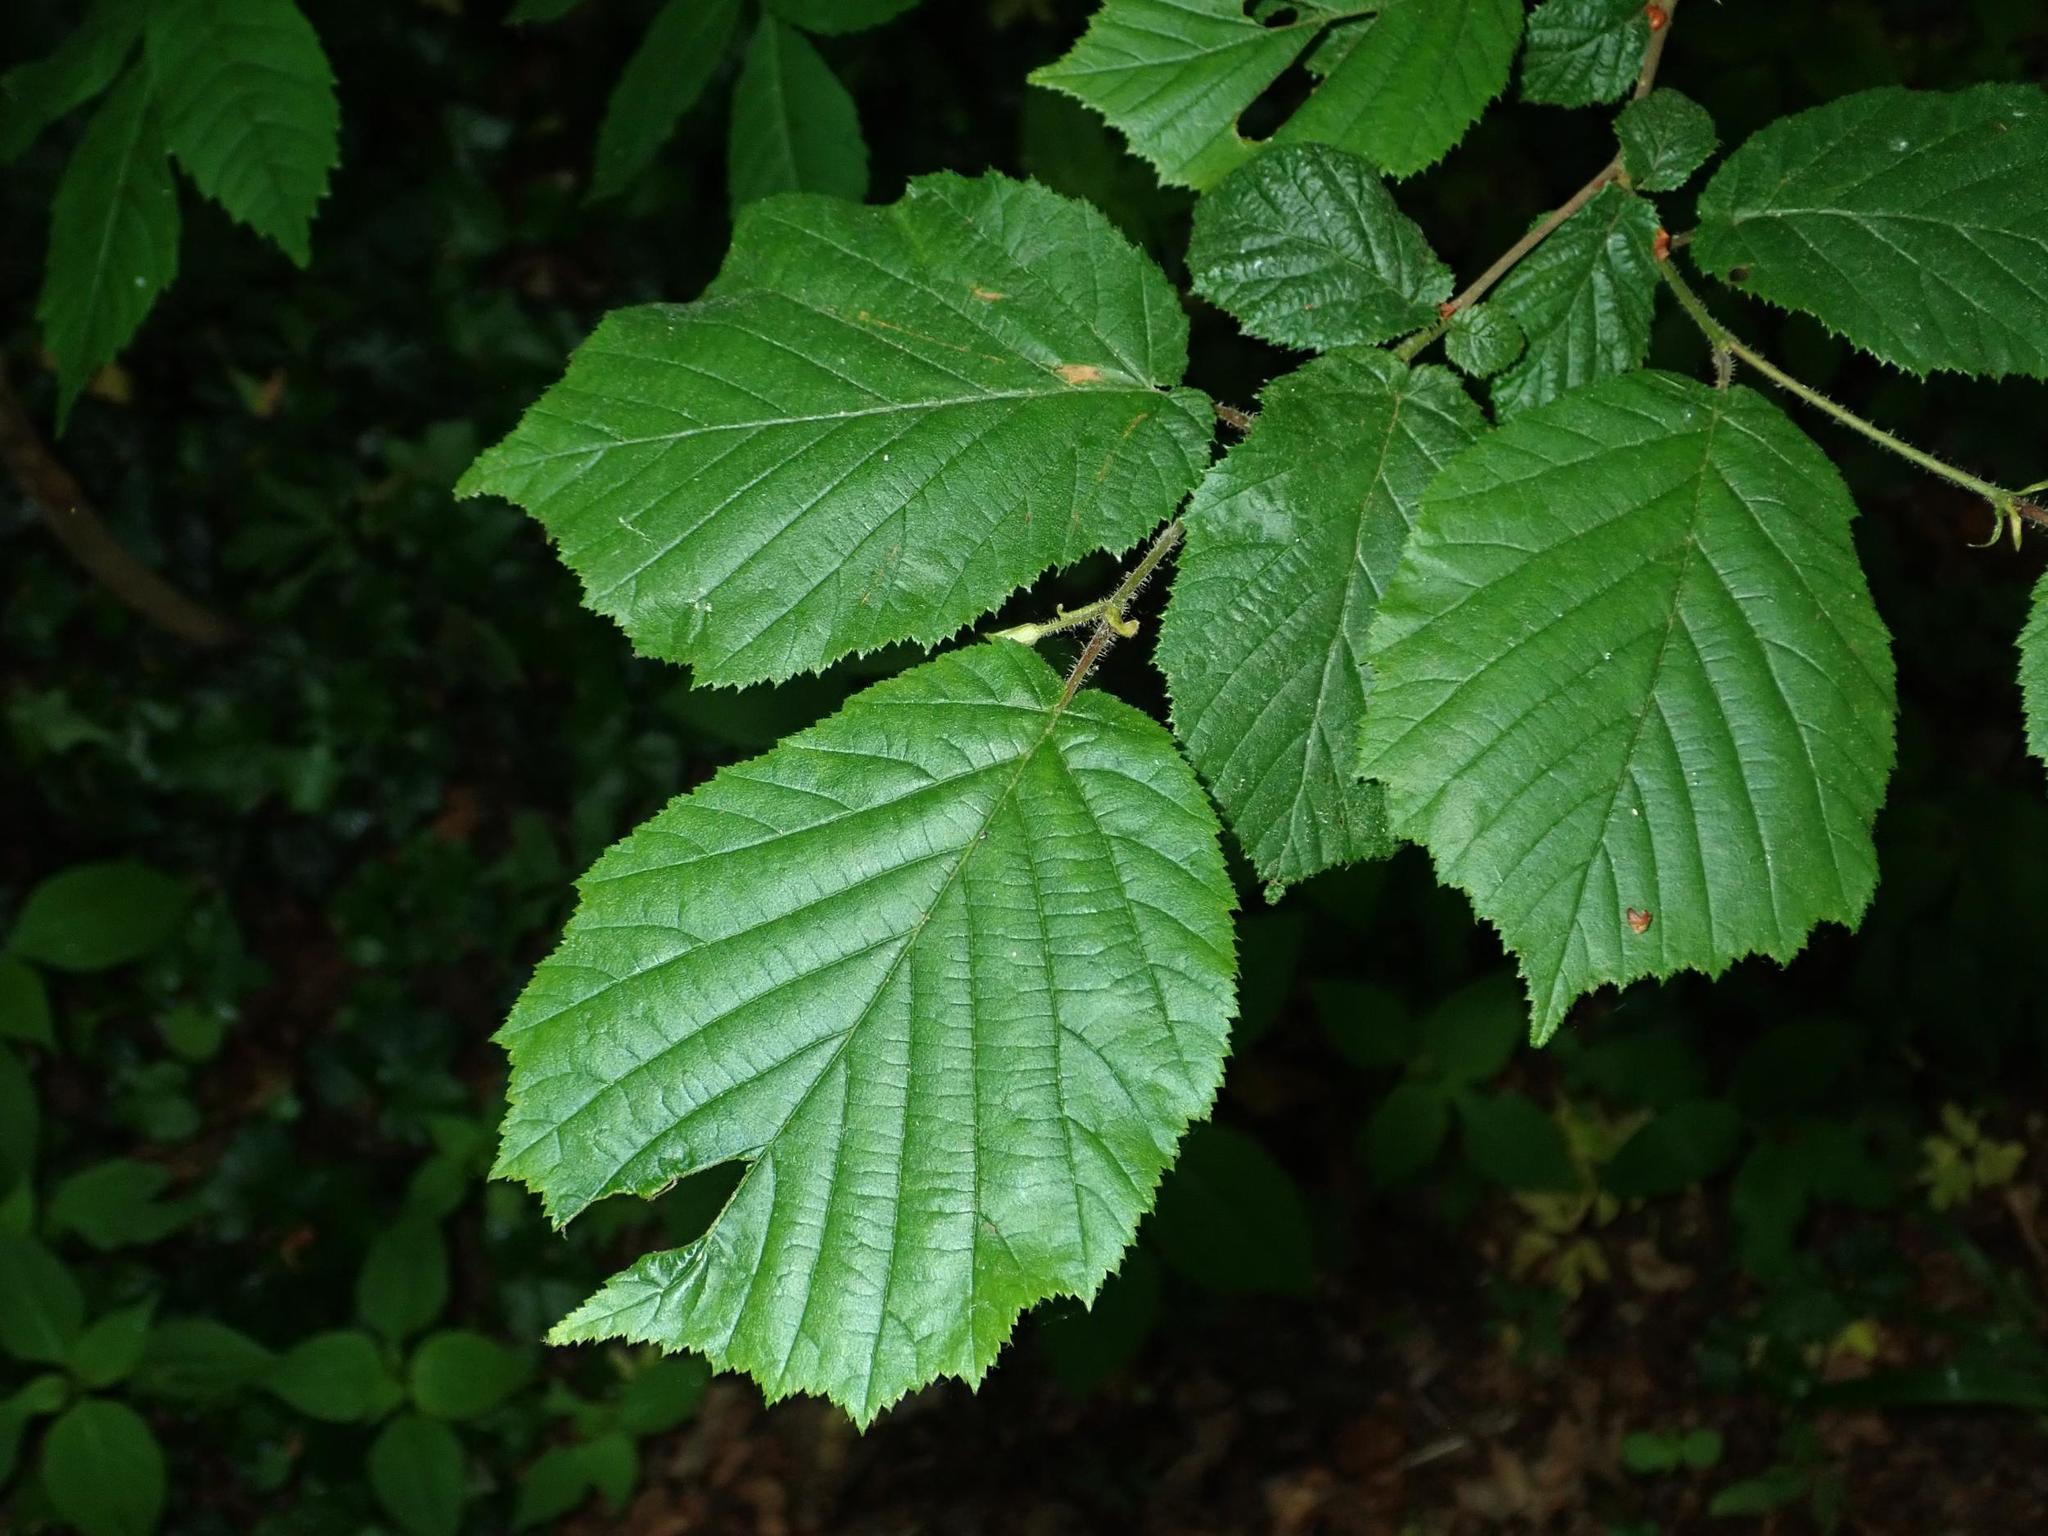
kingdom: Plantae
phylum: Tracheophyta
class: Magnoliopsida
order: Fagales
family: Betulaceae
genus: Corylus
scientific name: Corylus avellana
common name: European hazel
